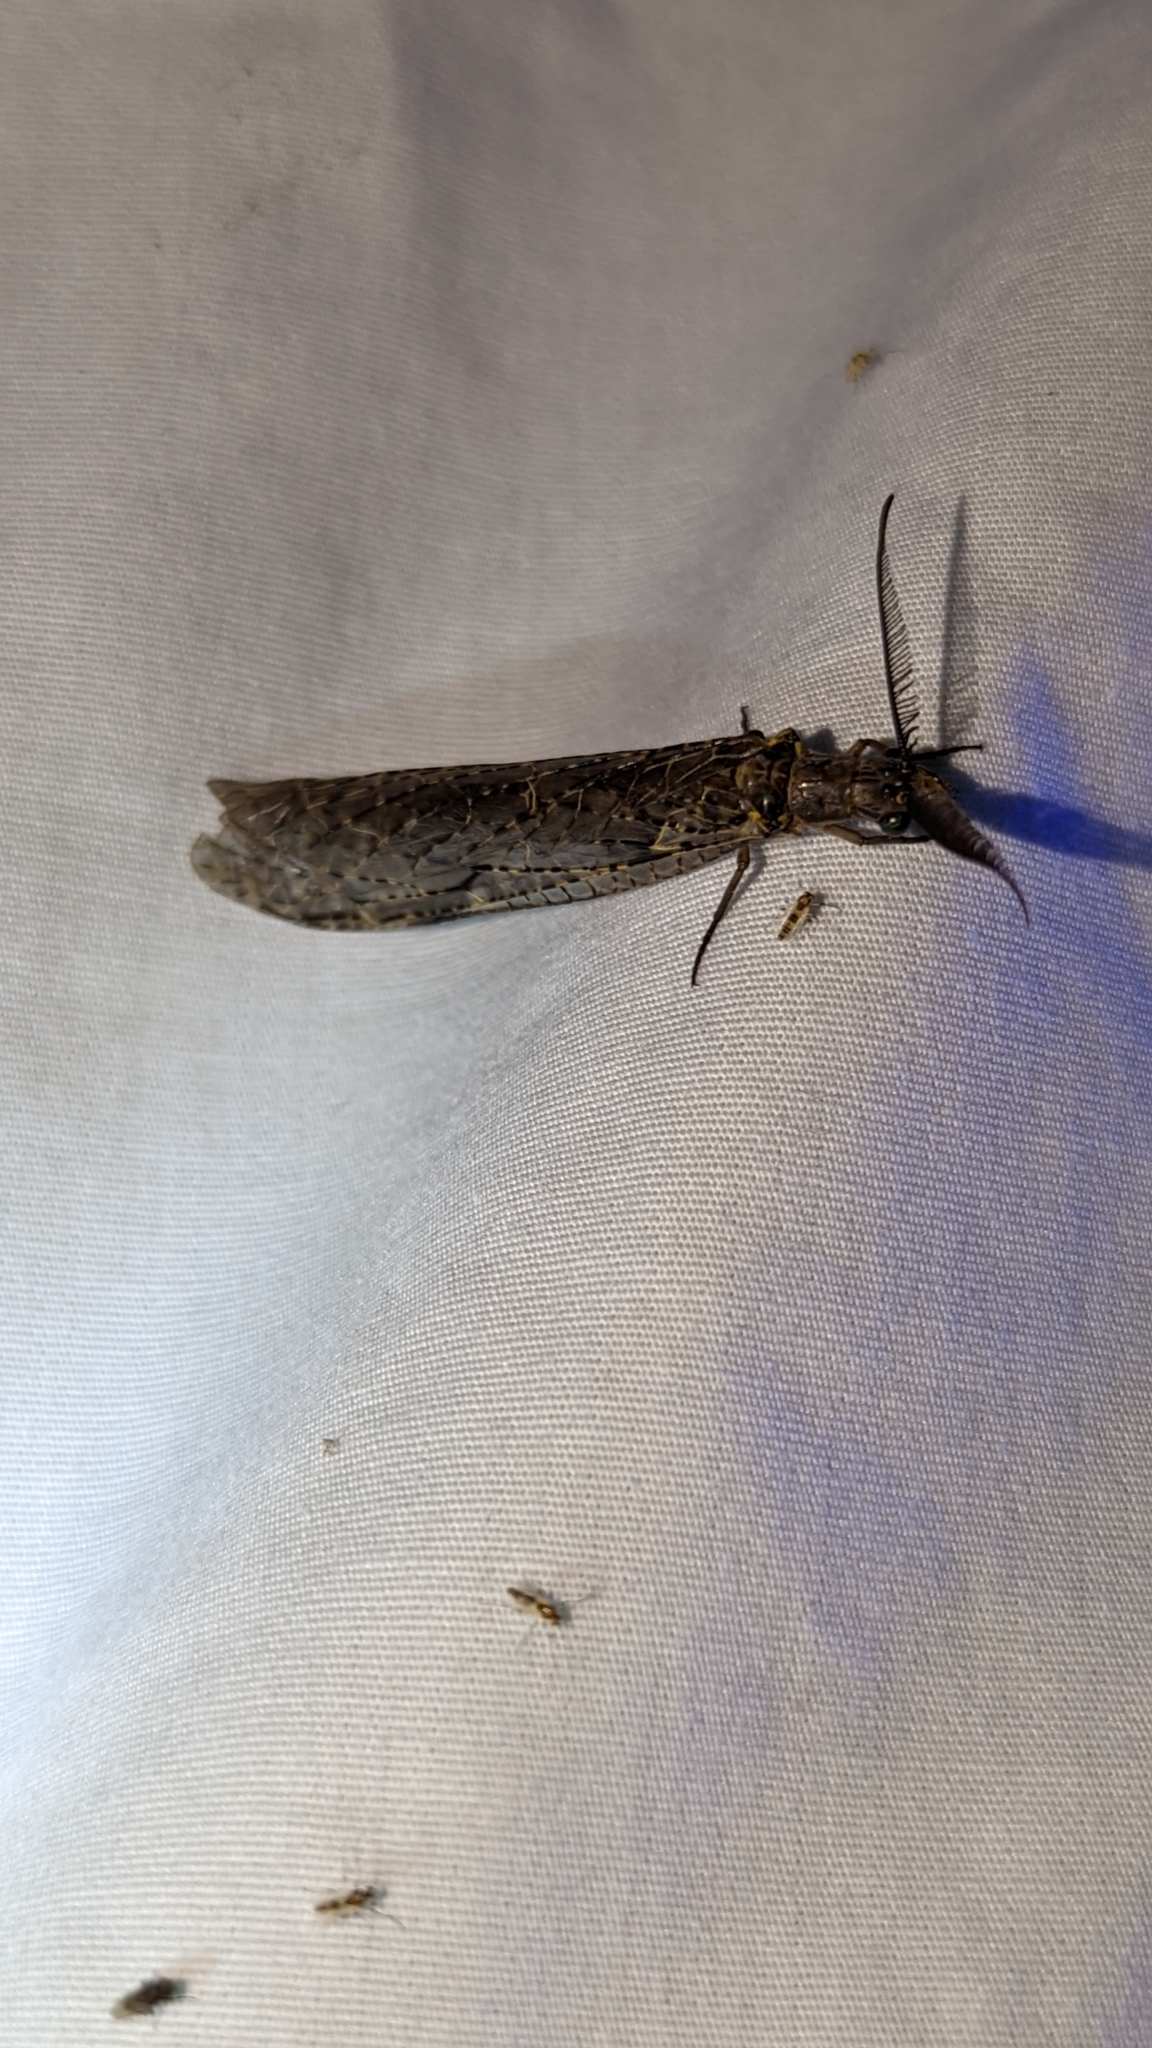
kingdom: Animalia
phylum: Arthropoda
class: Insecta
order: Megaloptera
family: Corydalidae
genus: Chauliodes
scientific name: Chauliodes rastricornis
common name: Spring fishfly
